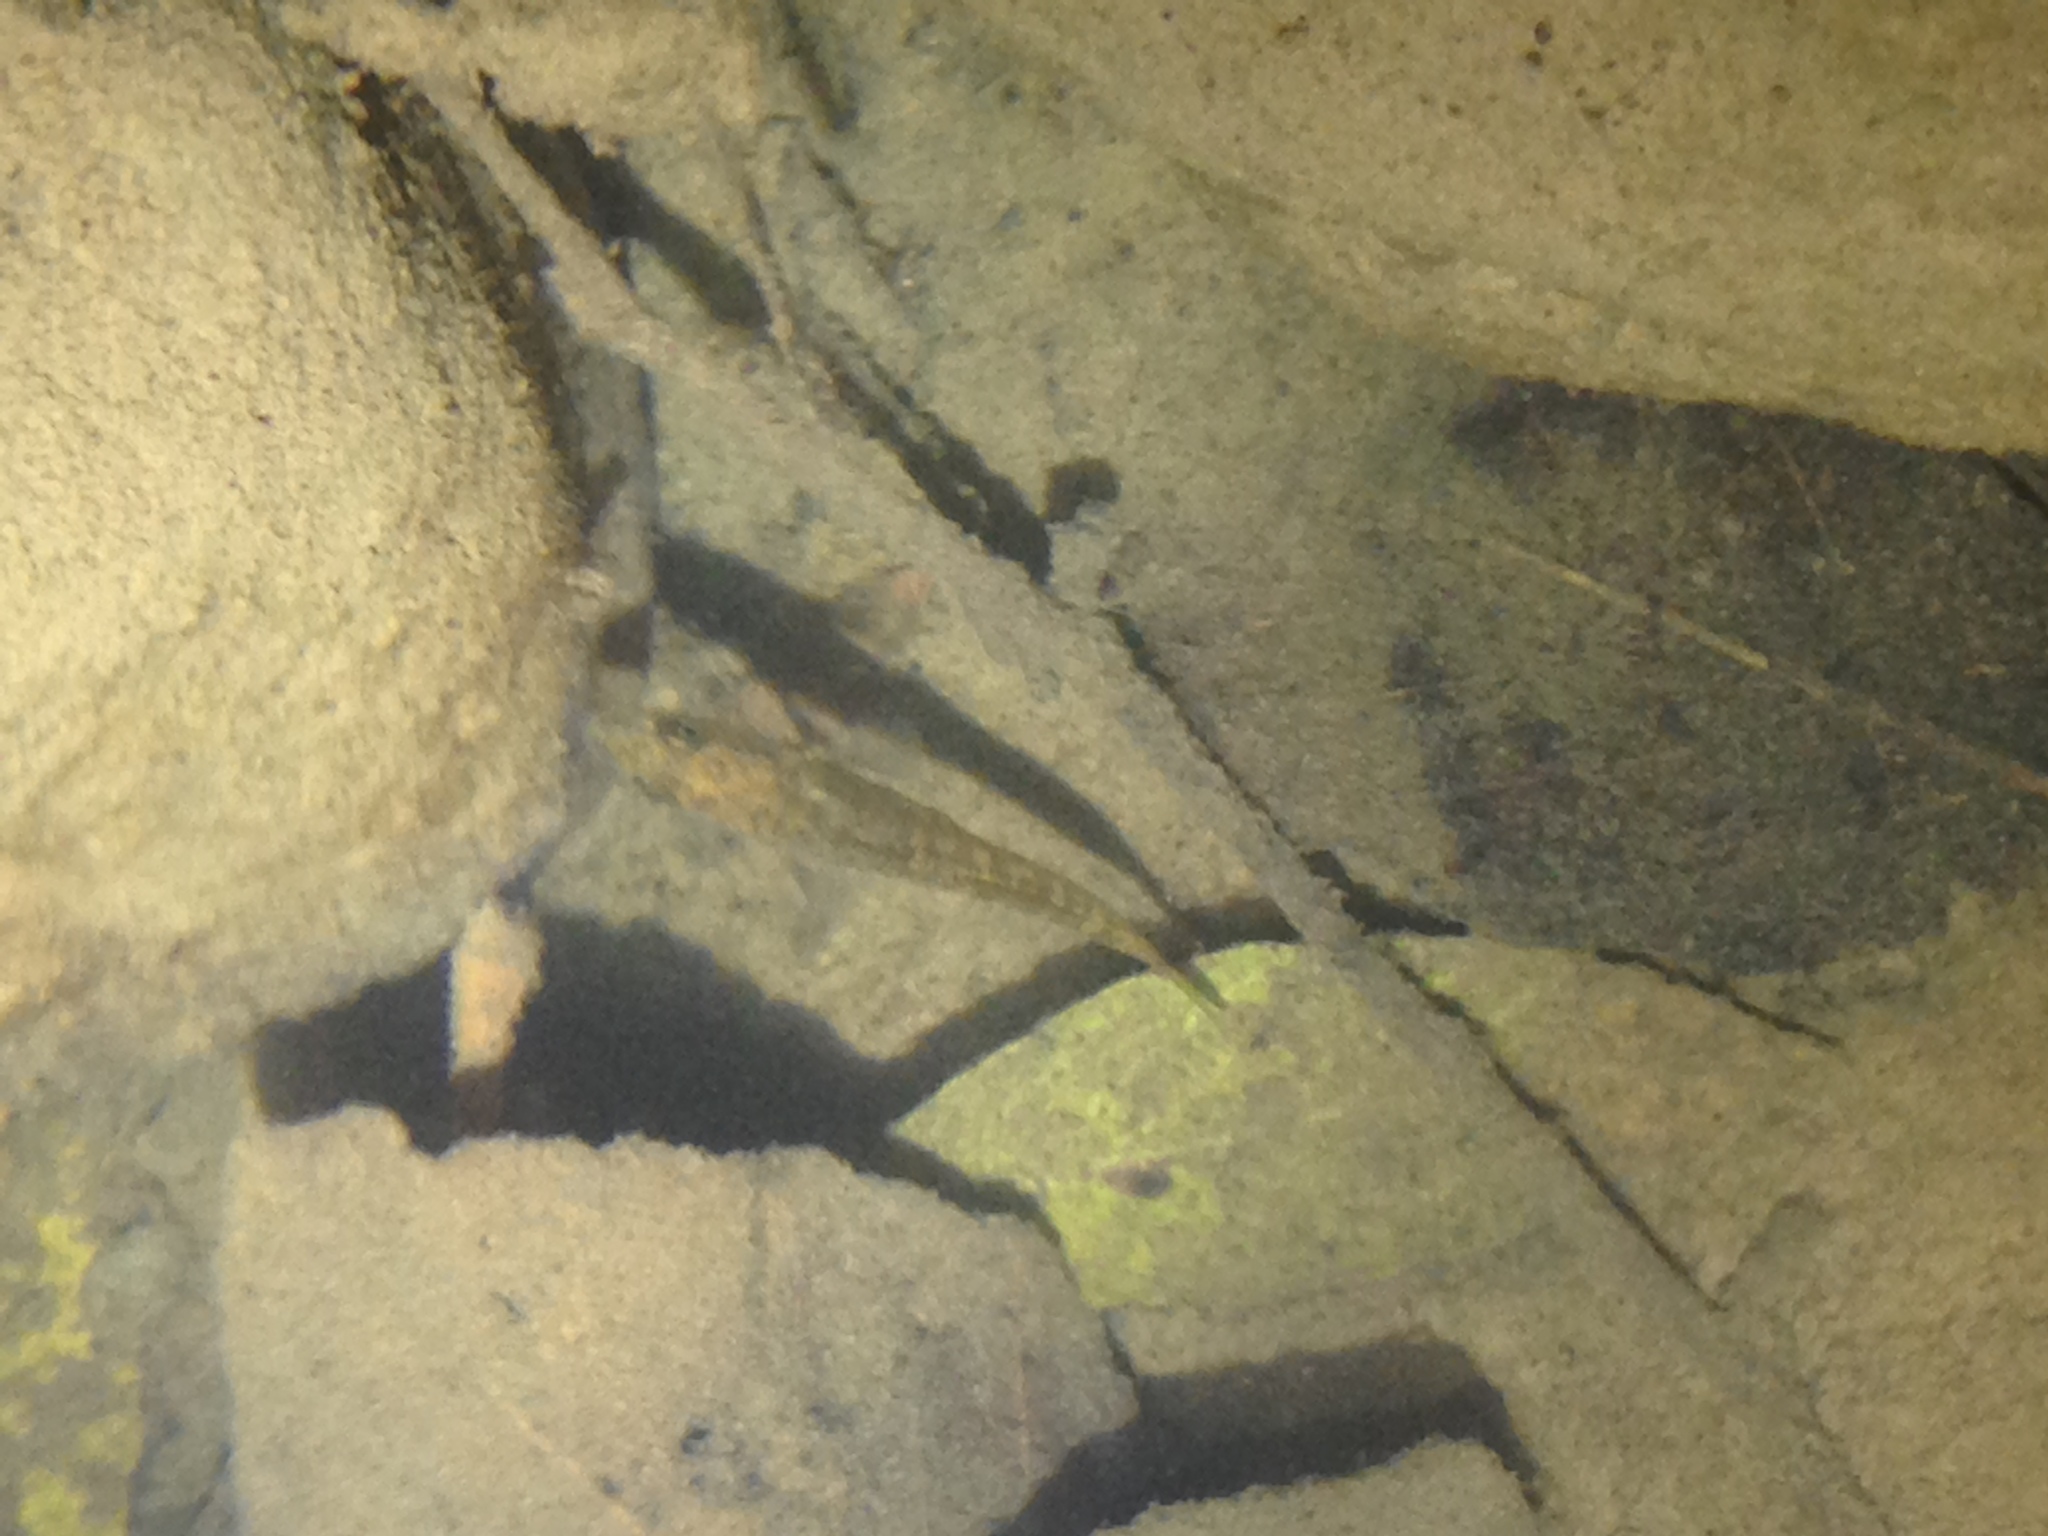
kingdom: Animalia
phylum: Chordata
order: Gasterosteiformes
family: Gasterosteidae
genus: Gasterosteus
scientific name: Gasterosteus aculeatus
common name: Three-spined stickleback
